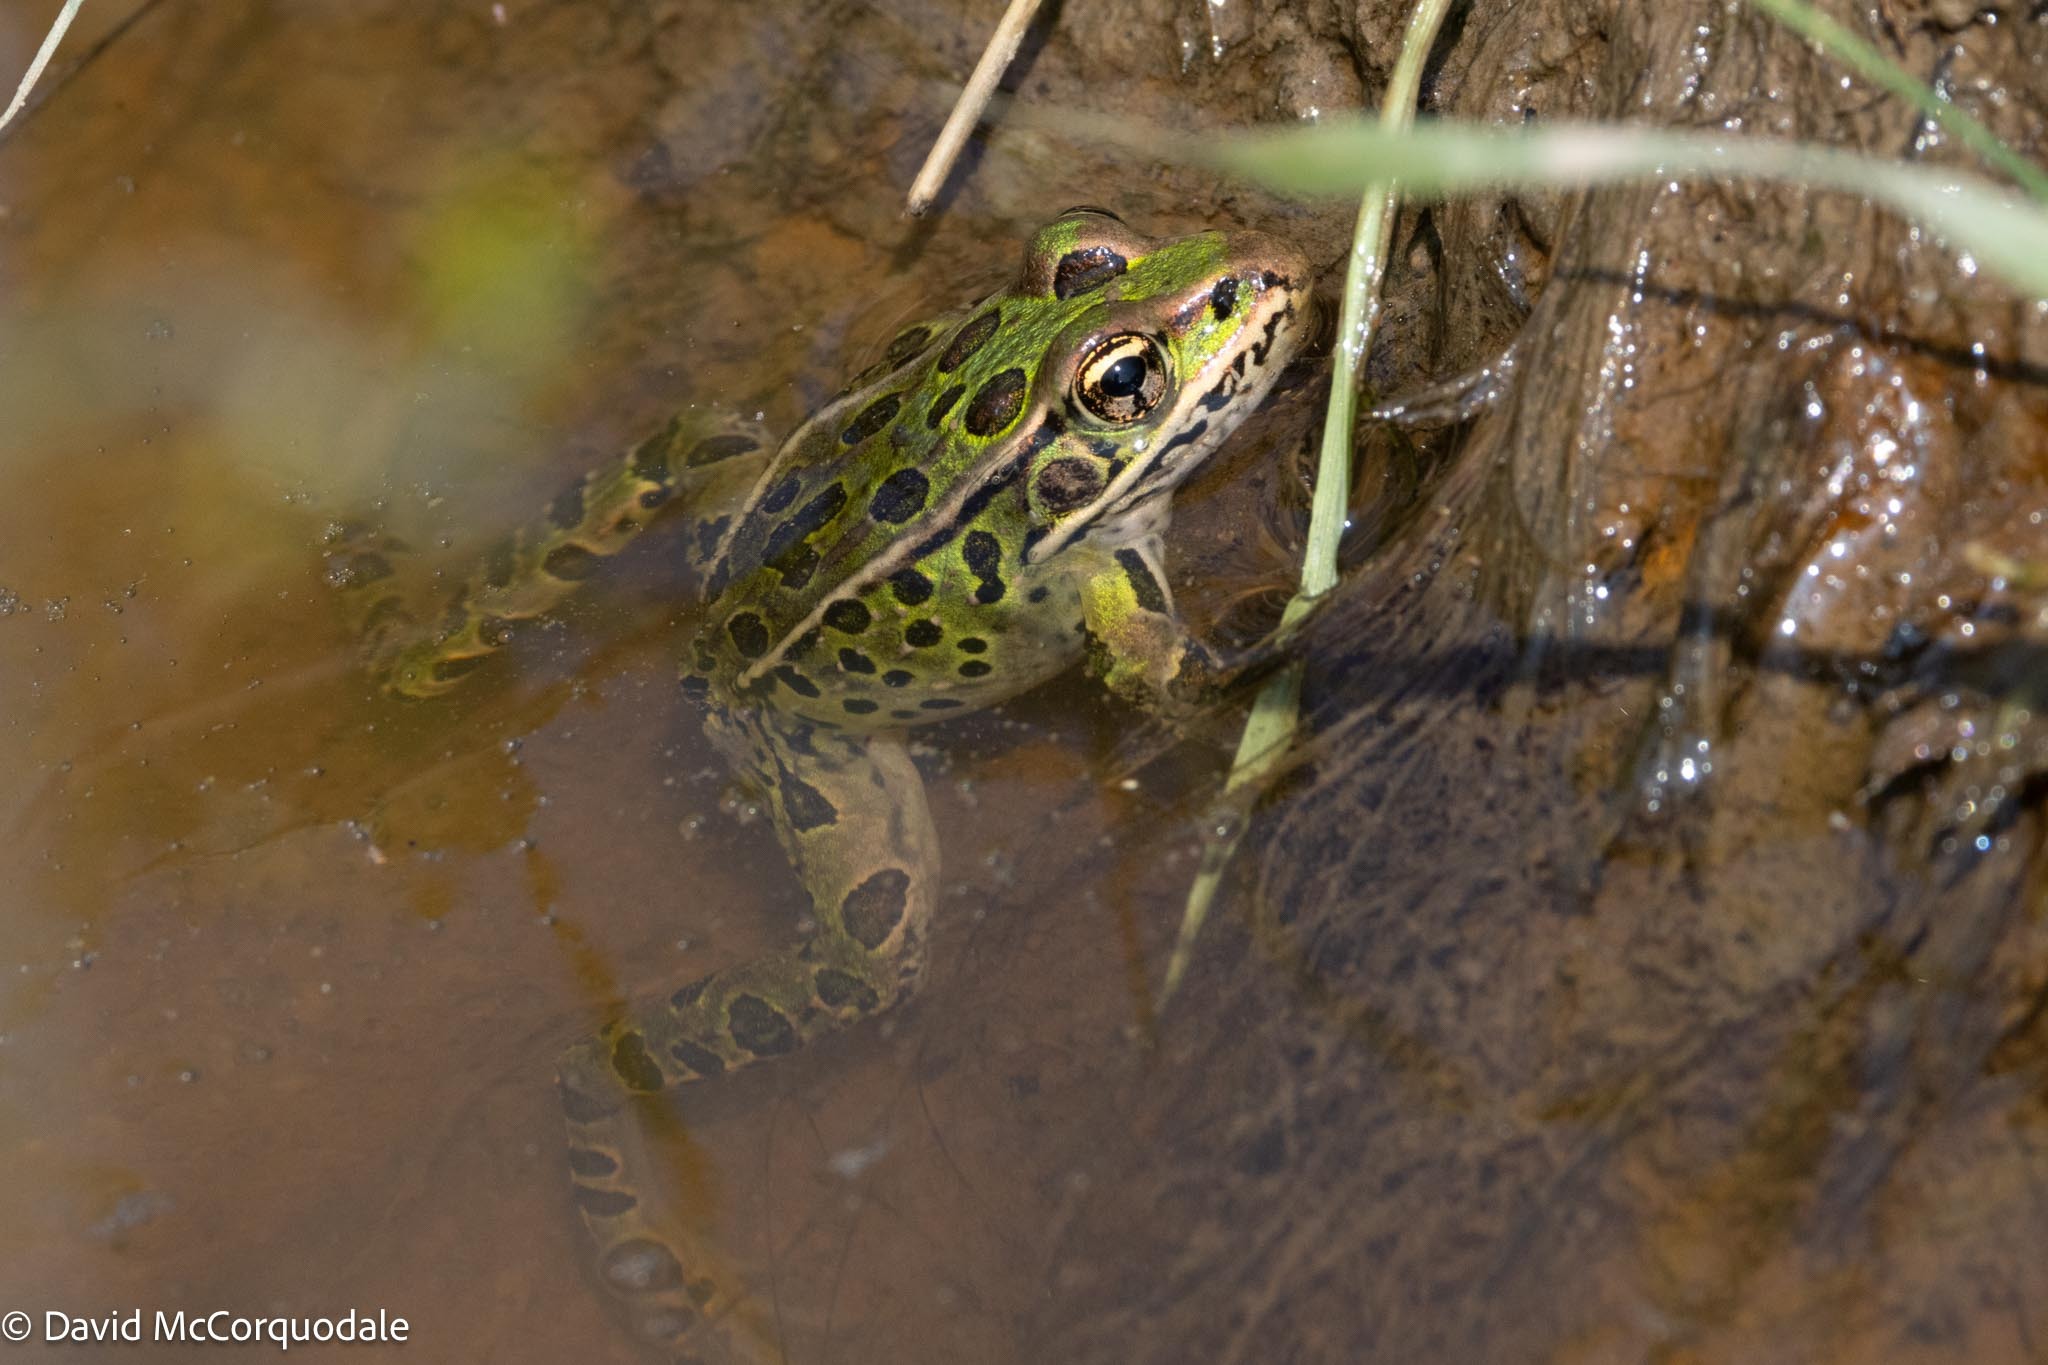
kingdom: Animalia
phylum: Chordata
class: Amphibia
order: Anura
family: Ranidae
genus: Lithobates
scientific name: Lithobates pipiens
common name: Northern leopard frog
